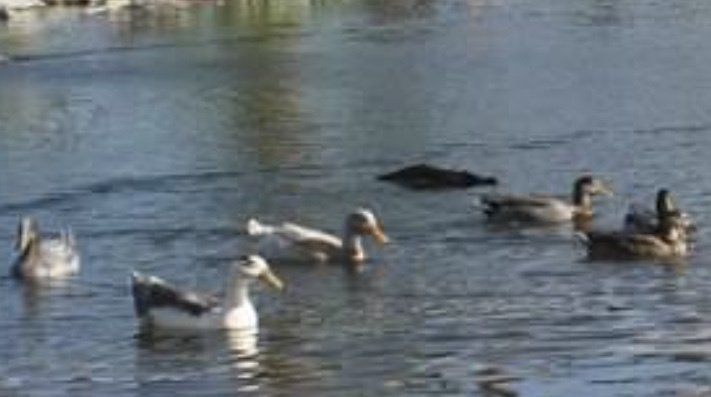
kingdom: Animalia
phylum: Chordata
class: Aves
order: Anseriformes
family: Anatidae
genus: Anas
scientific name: Anas platyrhynchos
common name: Mallard
